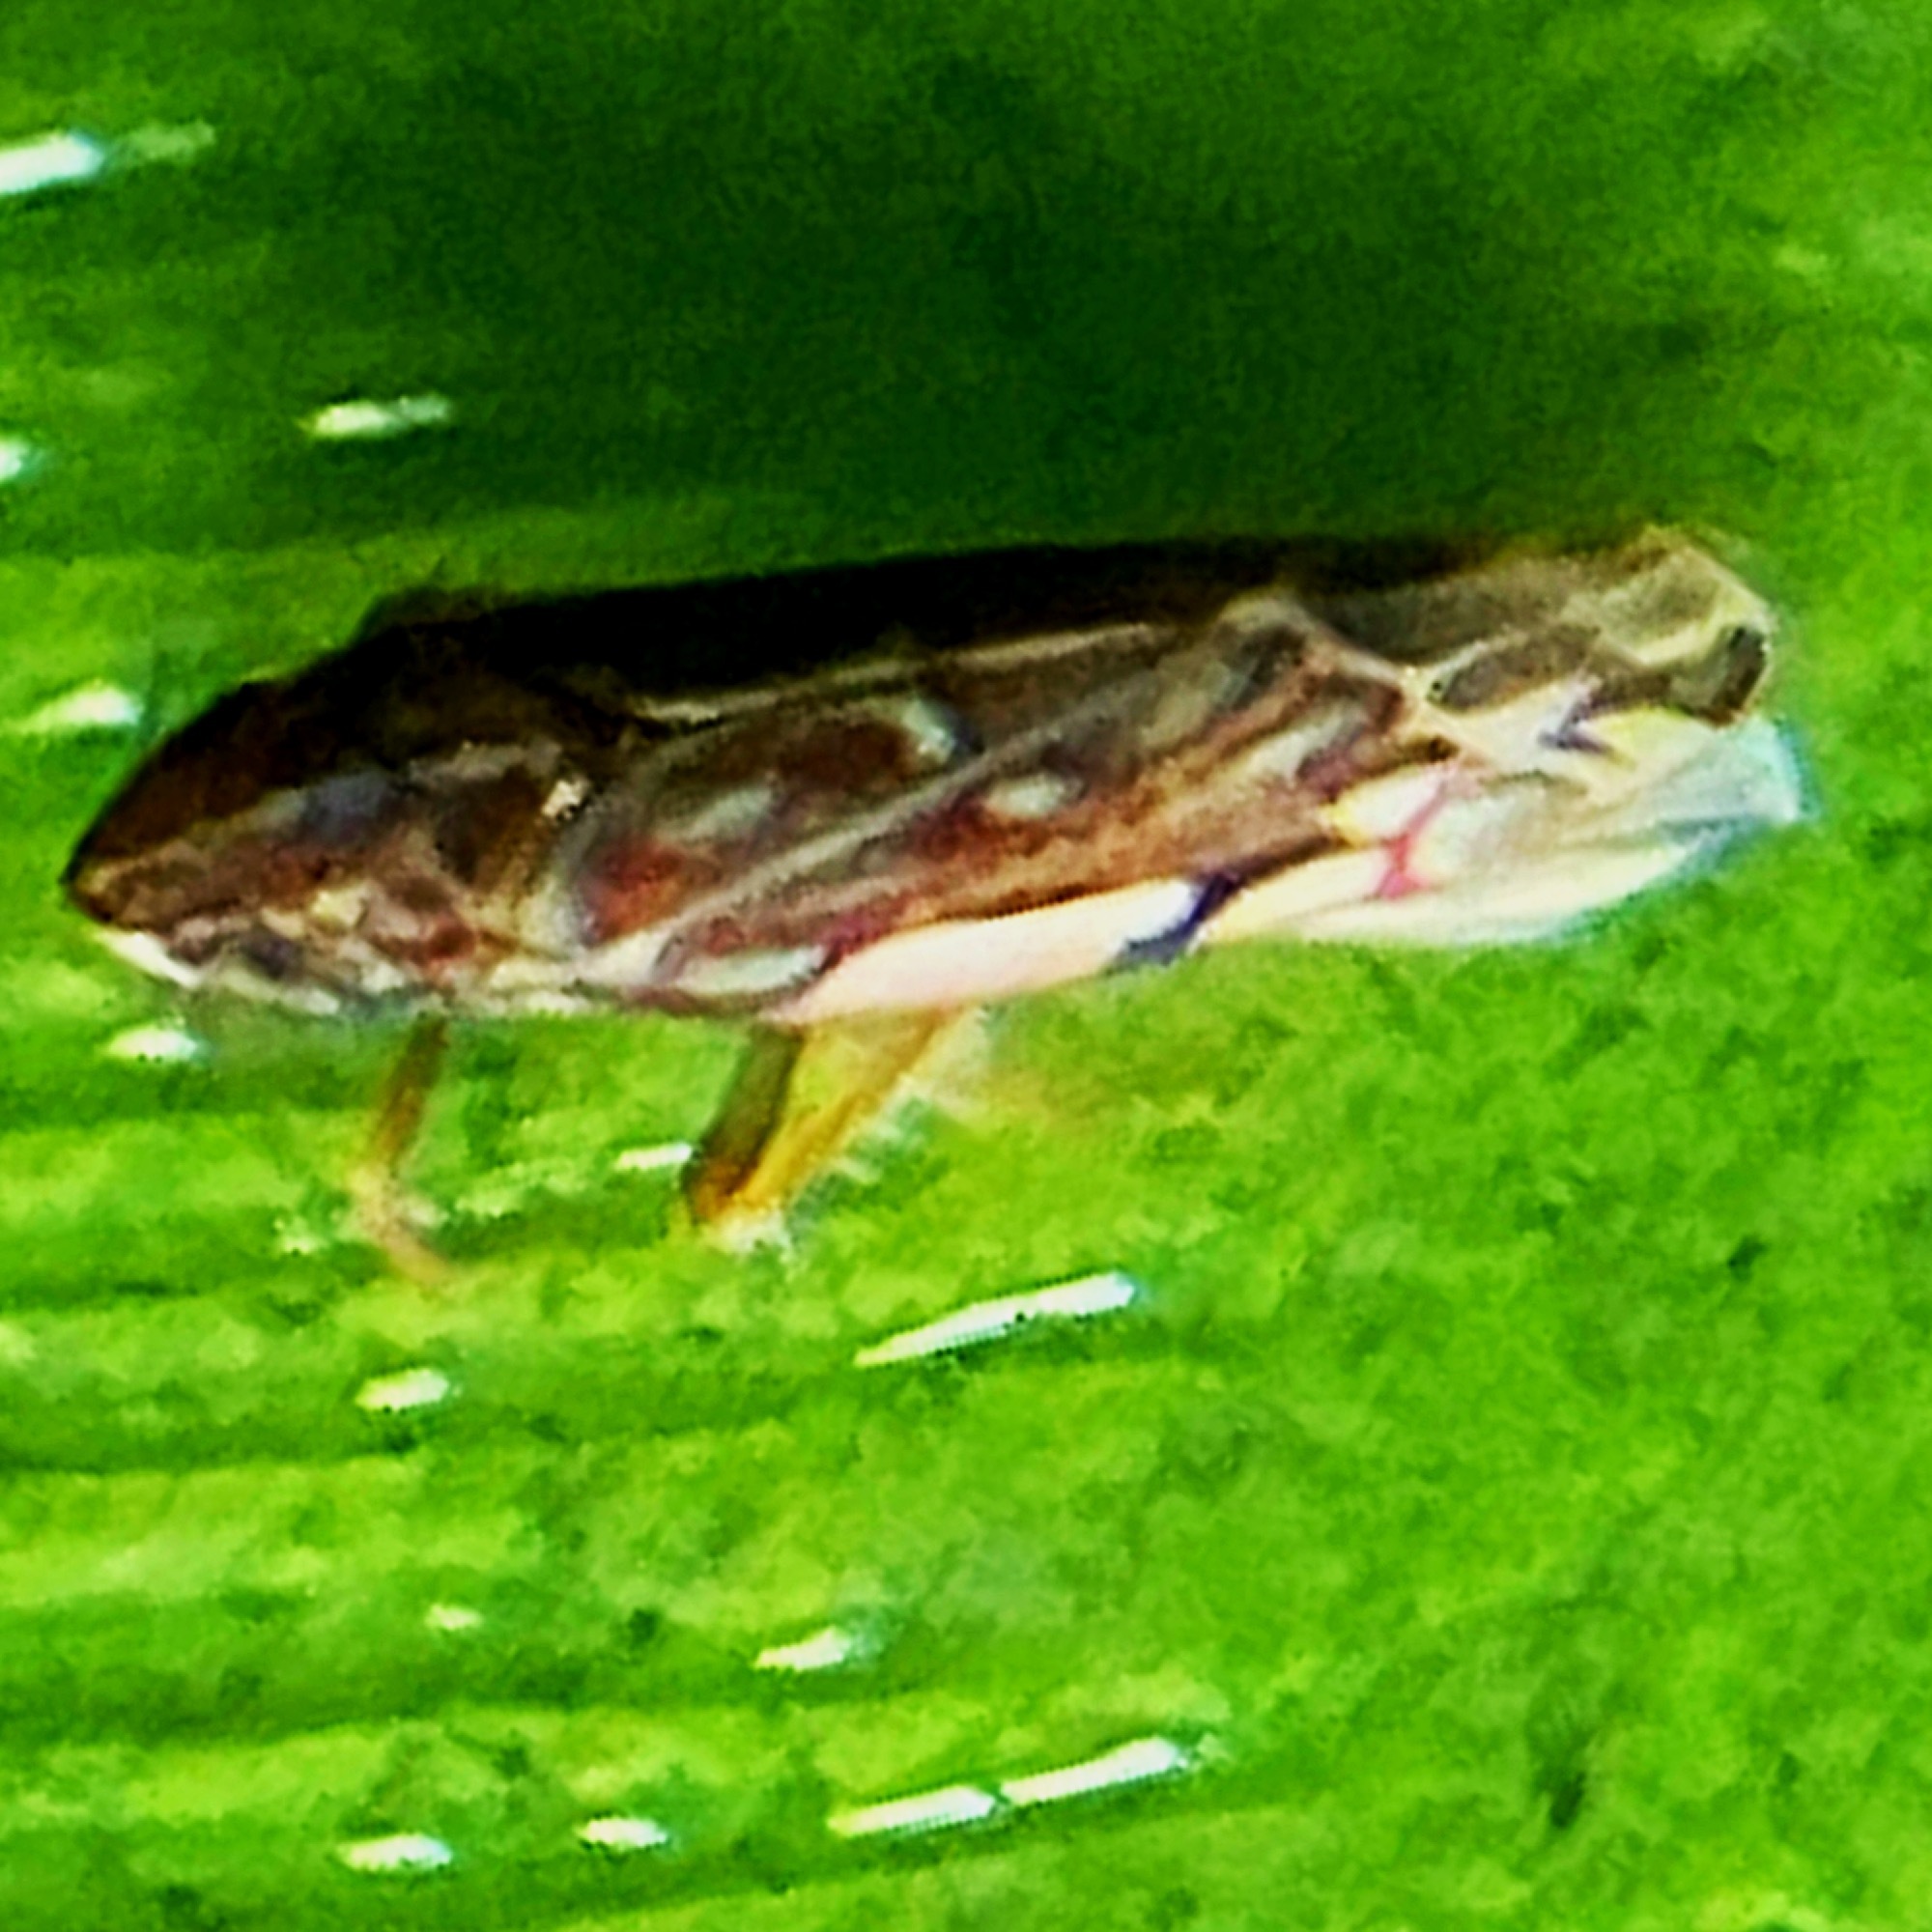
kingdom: Animalia
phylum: Arthropoda
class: Insecta
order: Hemiptera
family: Cicadellidae
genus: Erasmoneura
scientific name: Erasmoneura vulnerata
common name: The wounded leafhopper
